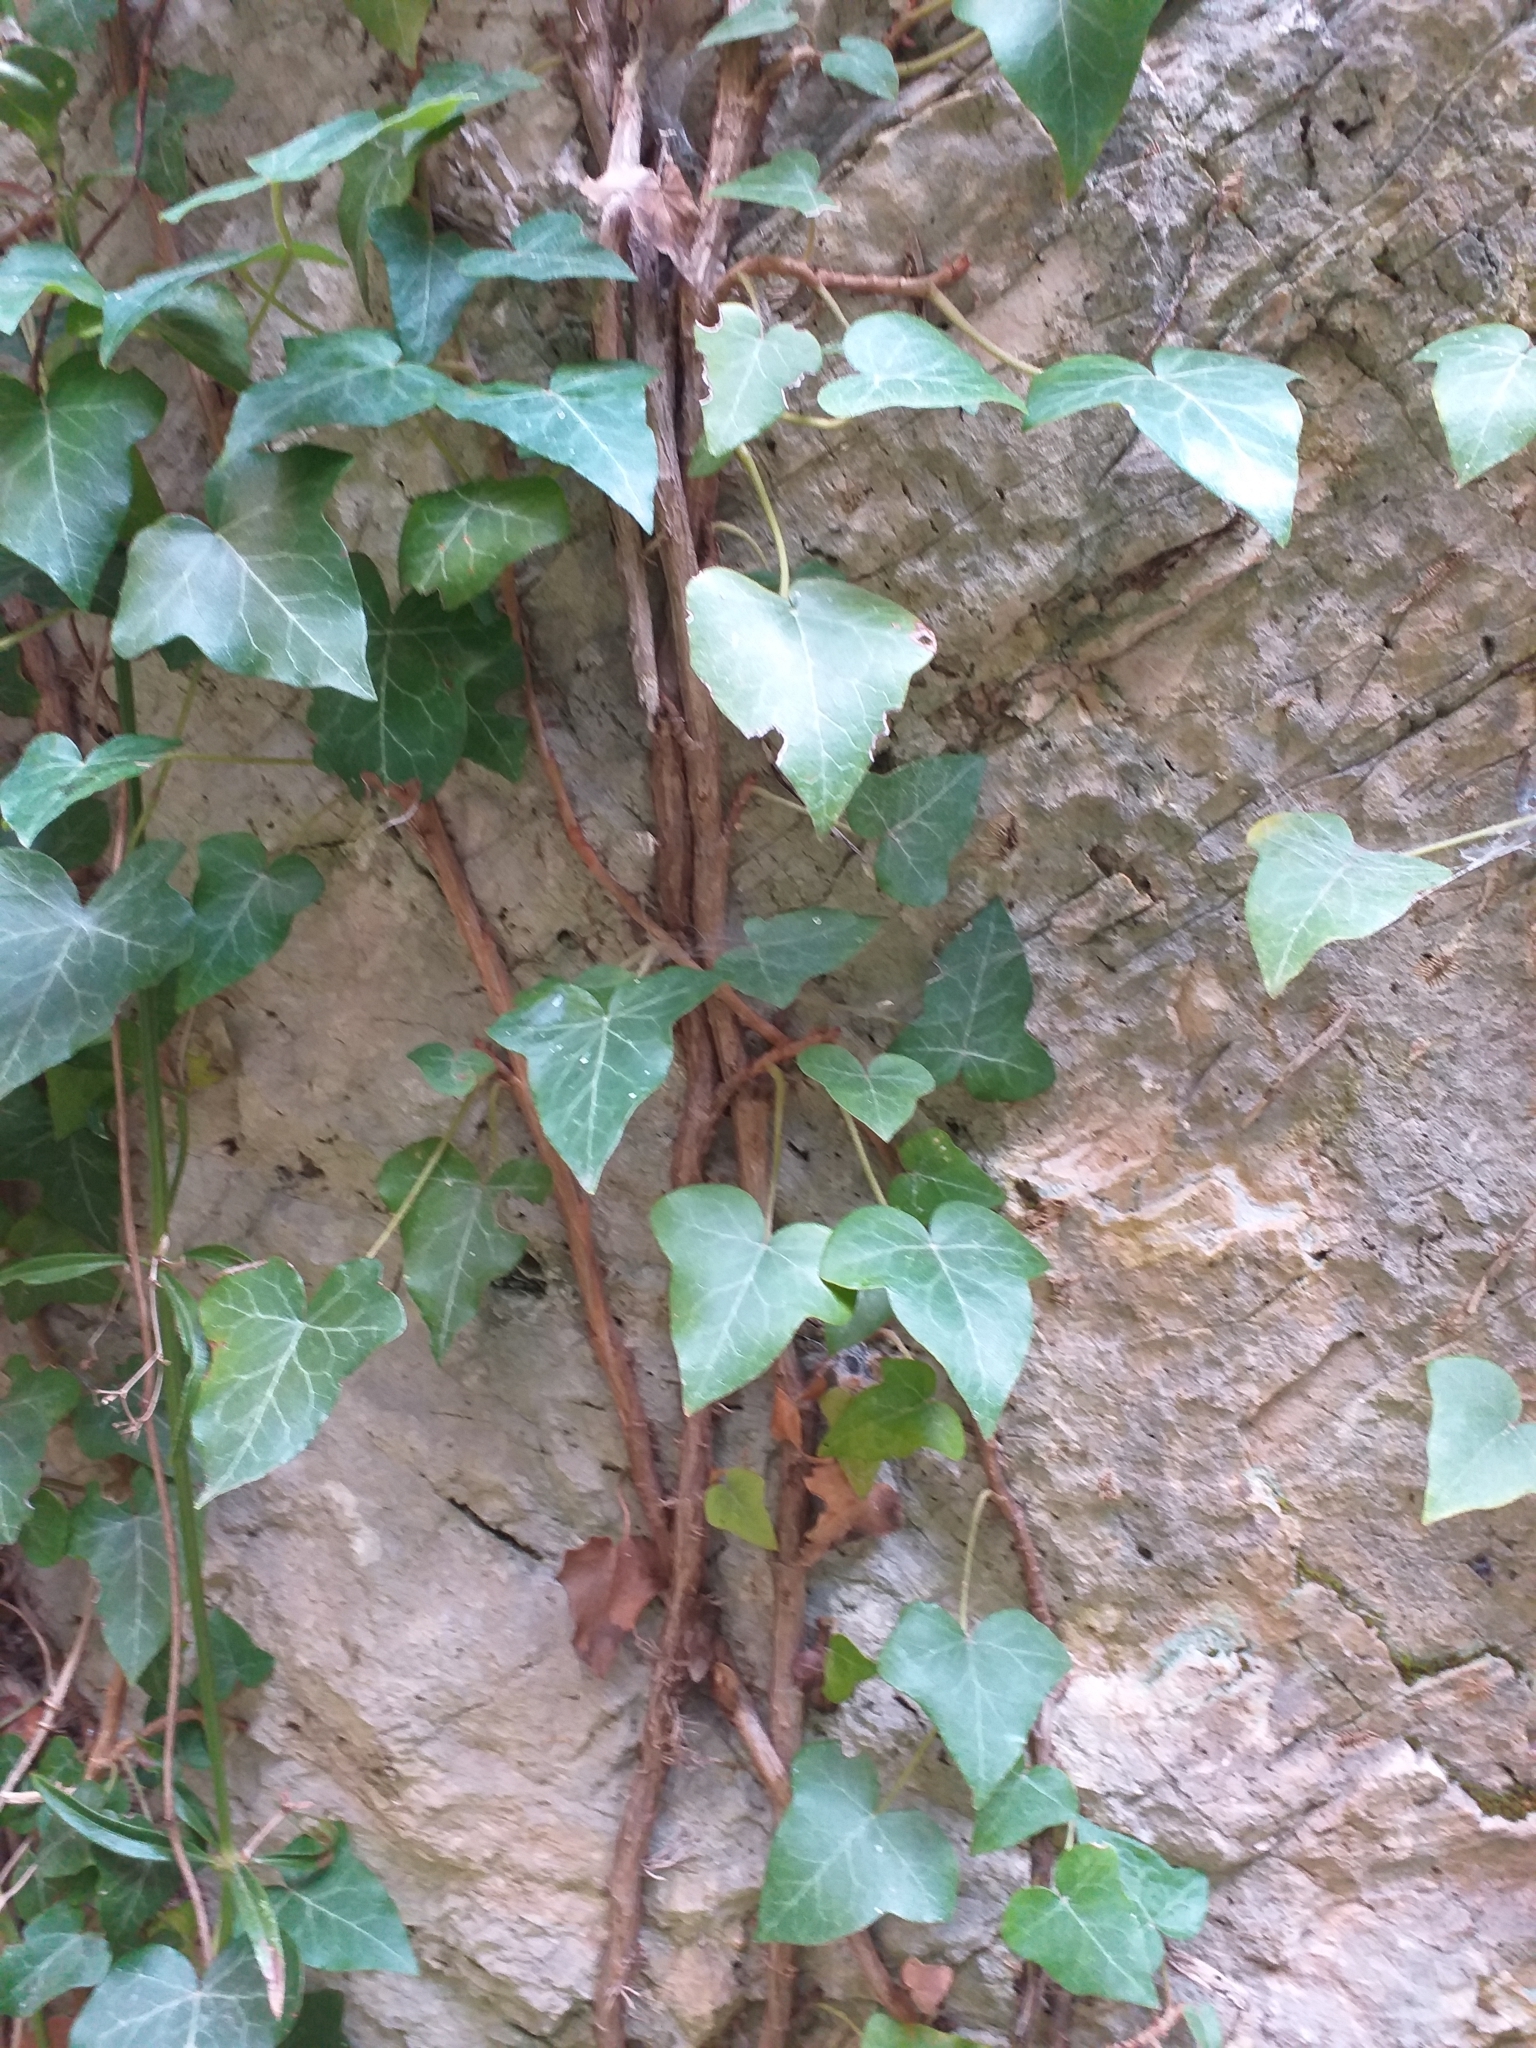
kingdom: Plantae
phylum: Tracheophyta
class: Magnoliopsida
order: Apiales
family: Araliaceae
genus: Hedera
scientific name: Hedera helix
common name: Ivy
